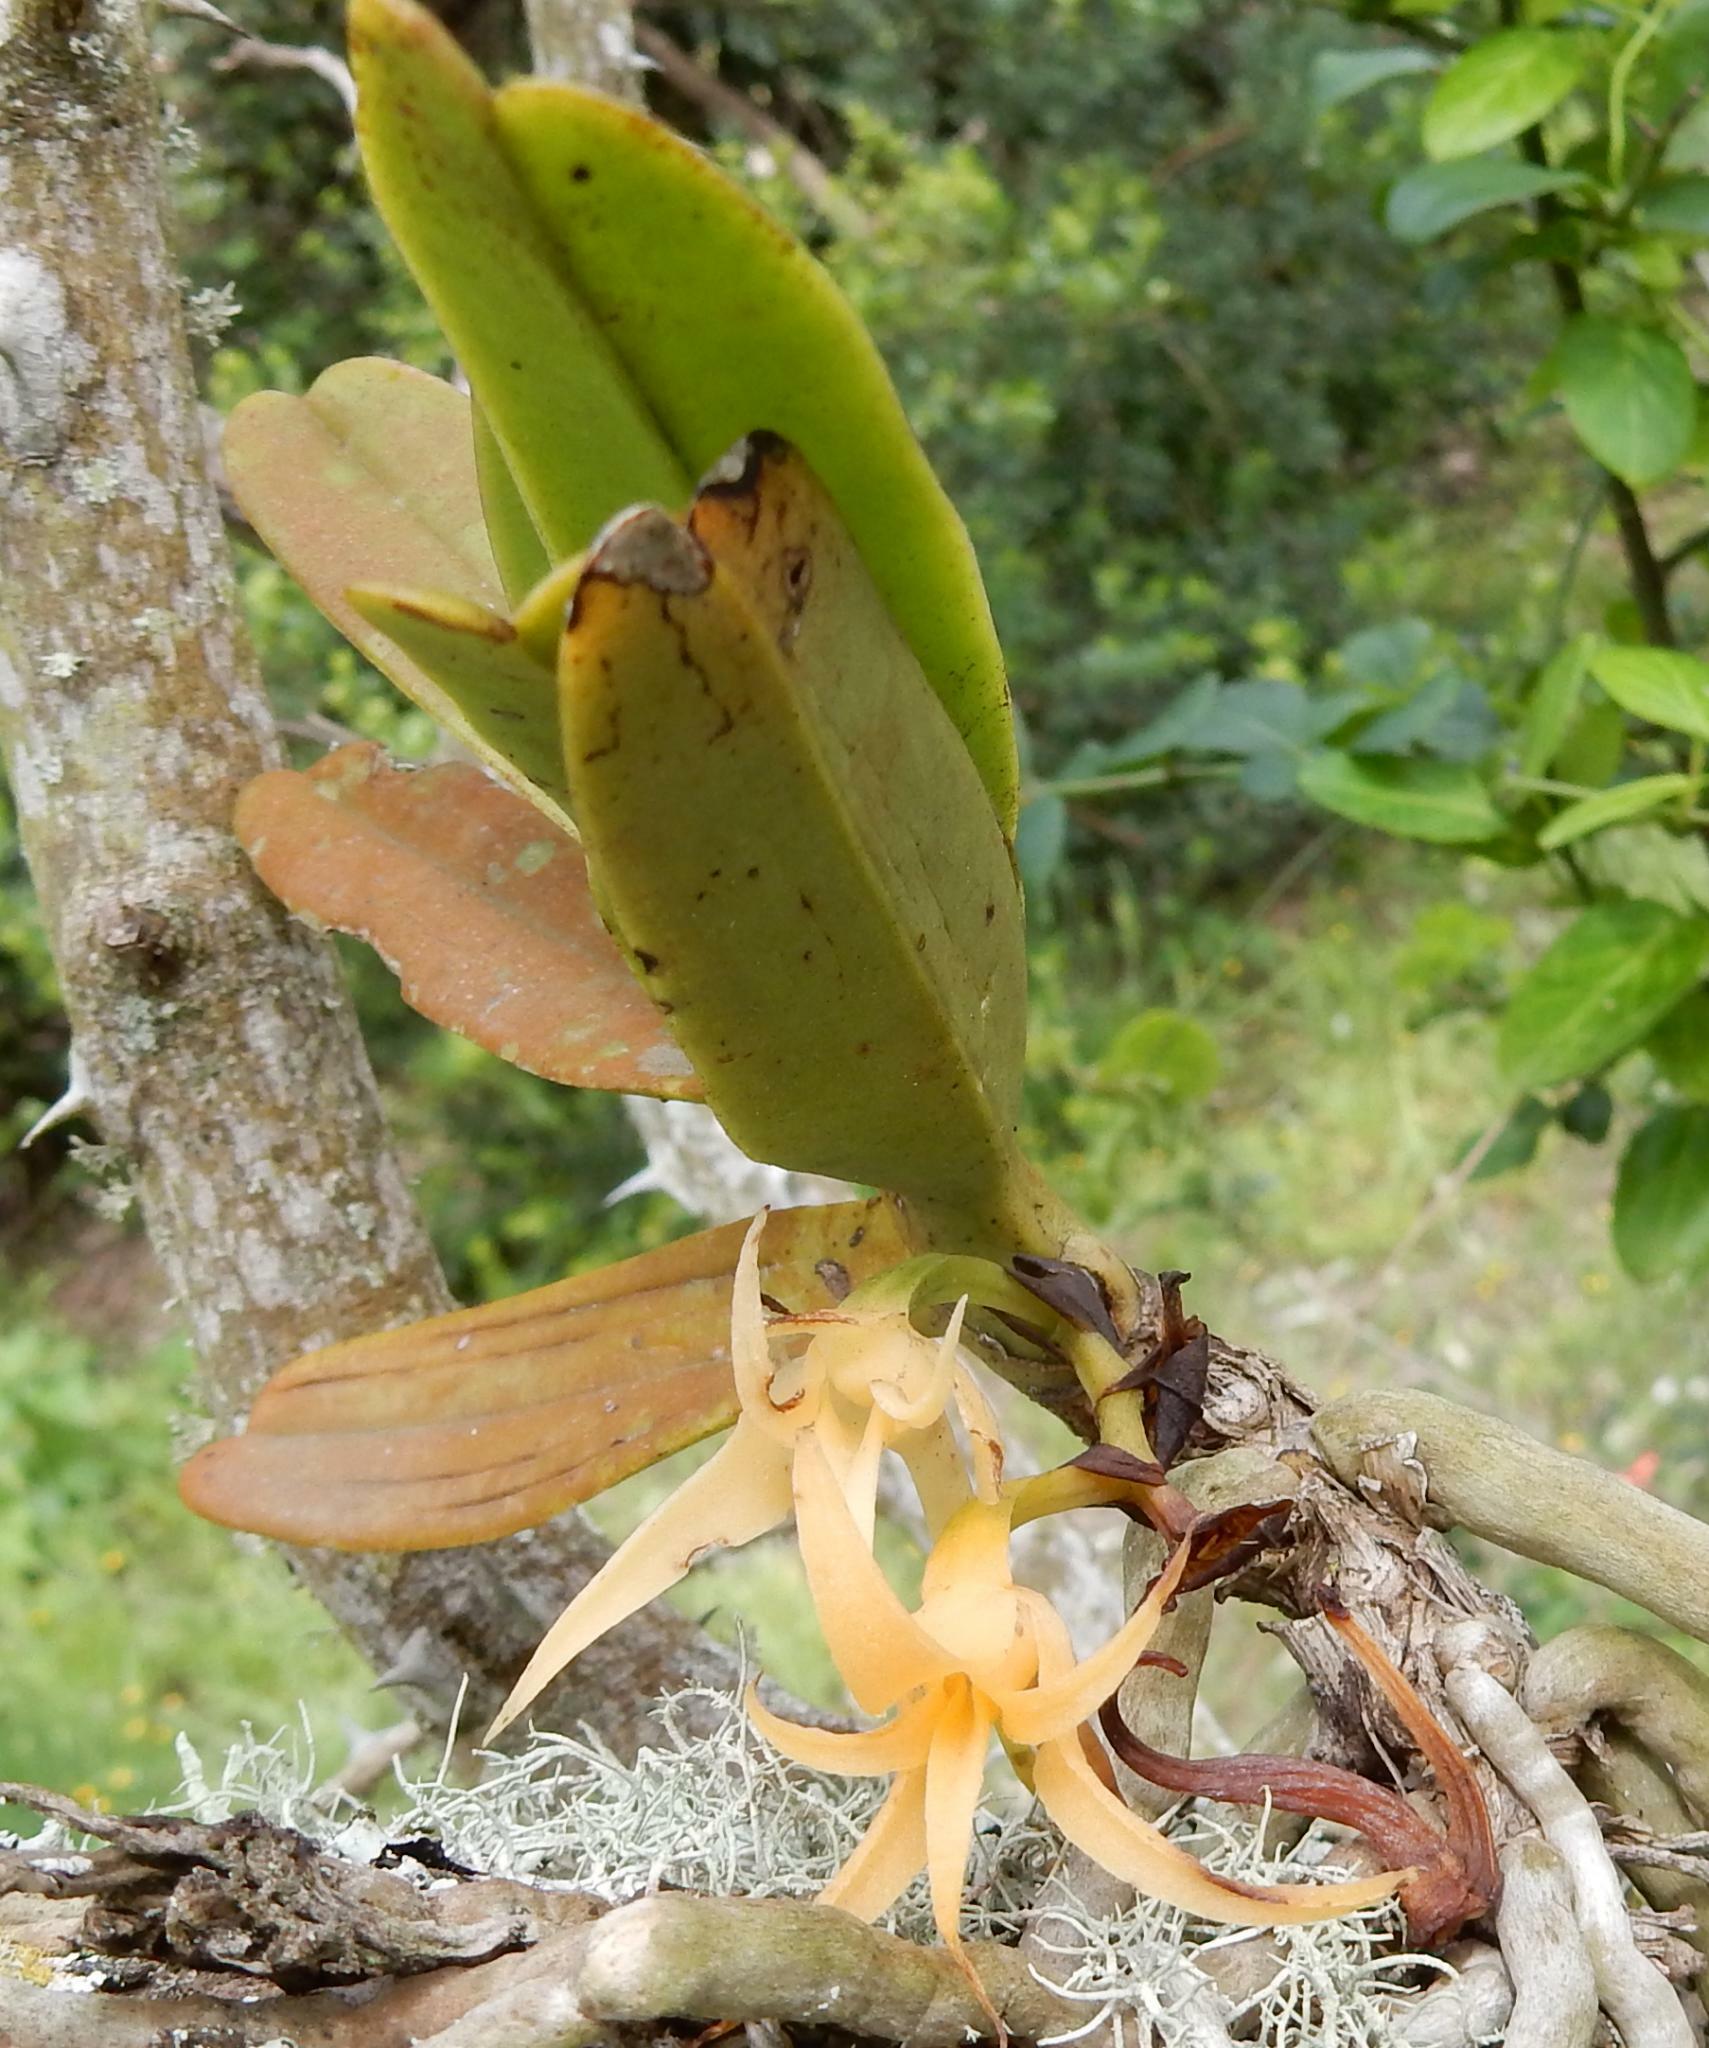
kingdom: Plantae
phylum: Tracheophyta
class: Liliopsida
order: Asparagales
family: Orchidaceae
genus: Cyrtorchis
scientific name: Cyrtorchis arcuata
